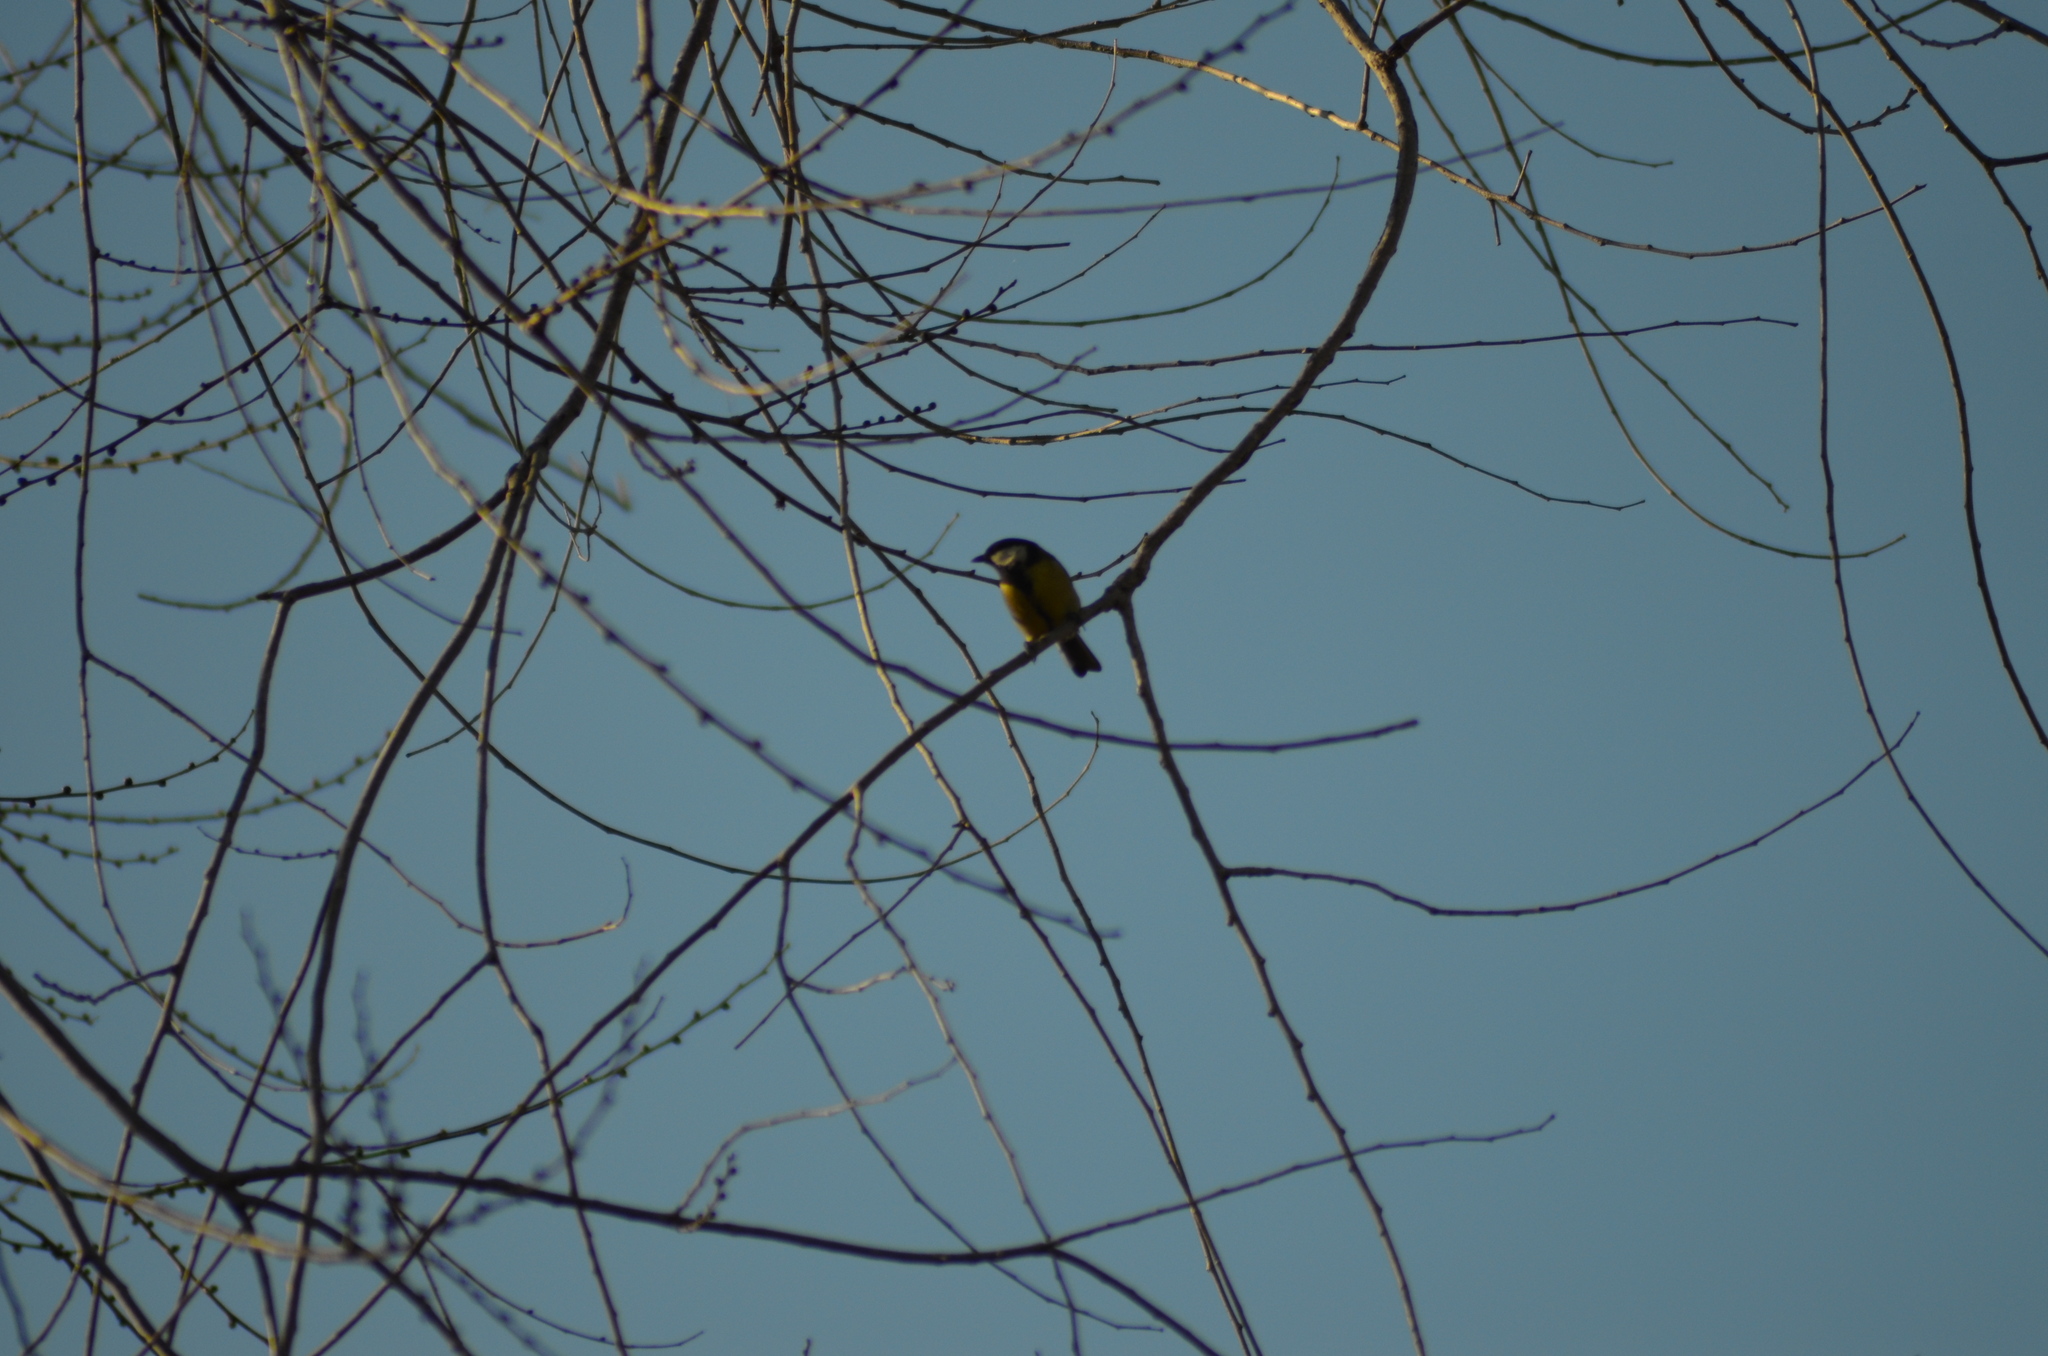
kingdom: Animalia
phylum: Chordata
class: Aves
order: Passeriformes
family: Paridae
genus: Parus
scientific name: Parus major
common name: Great tit
